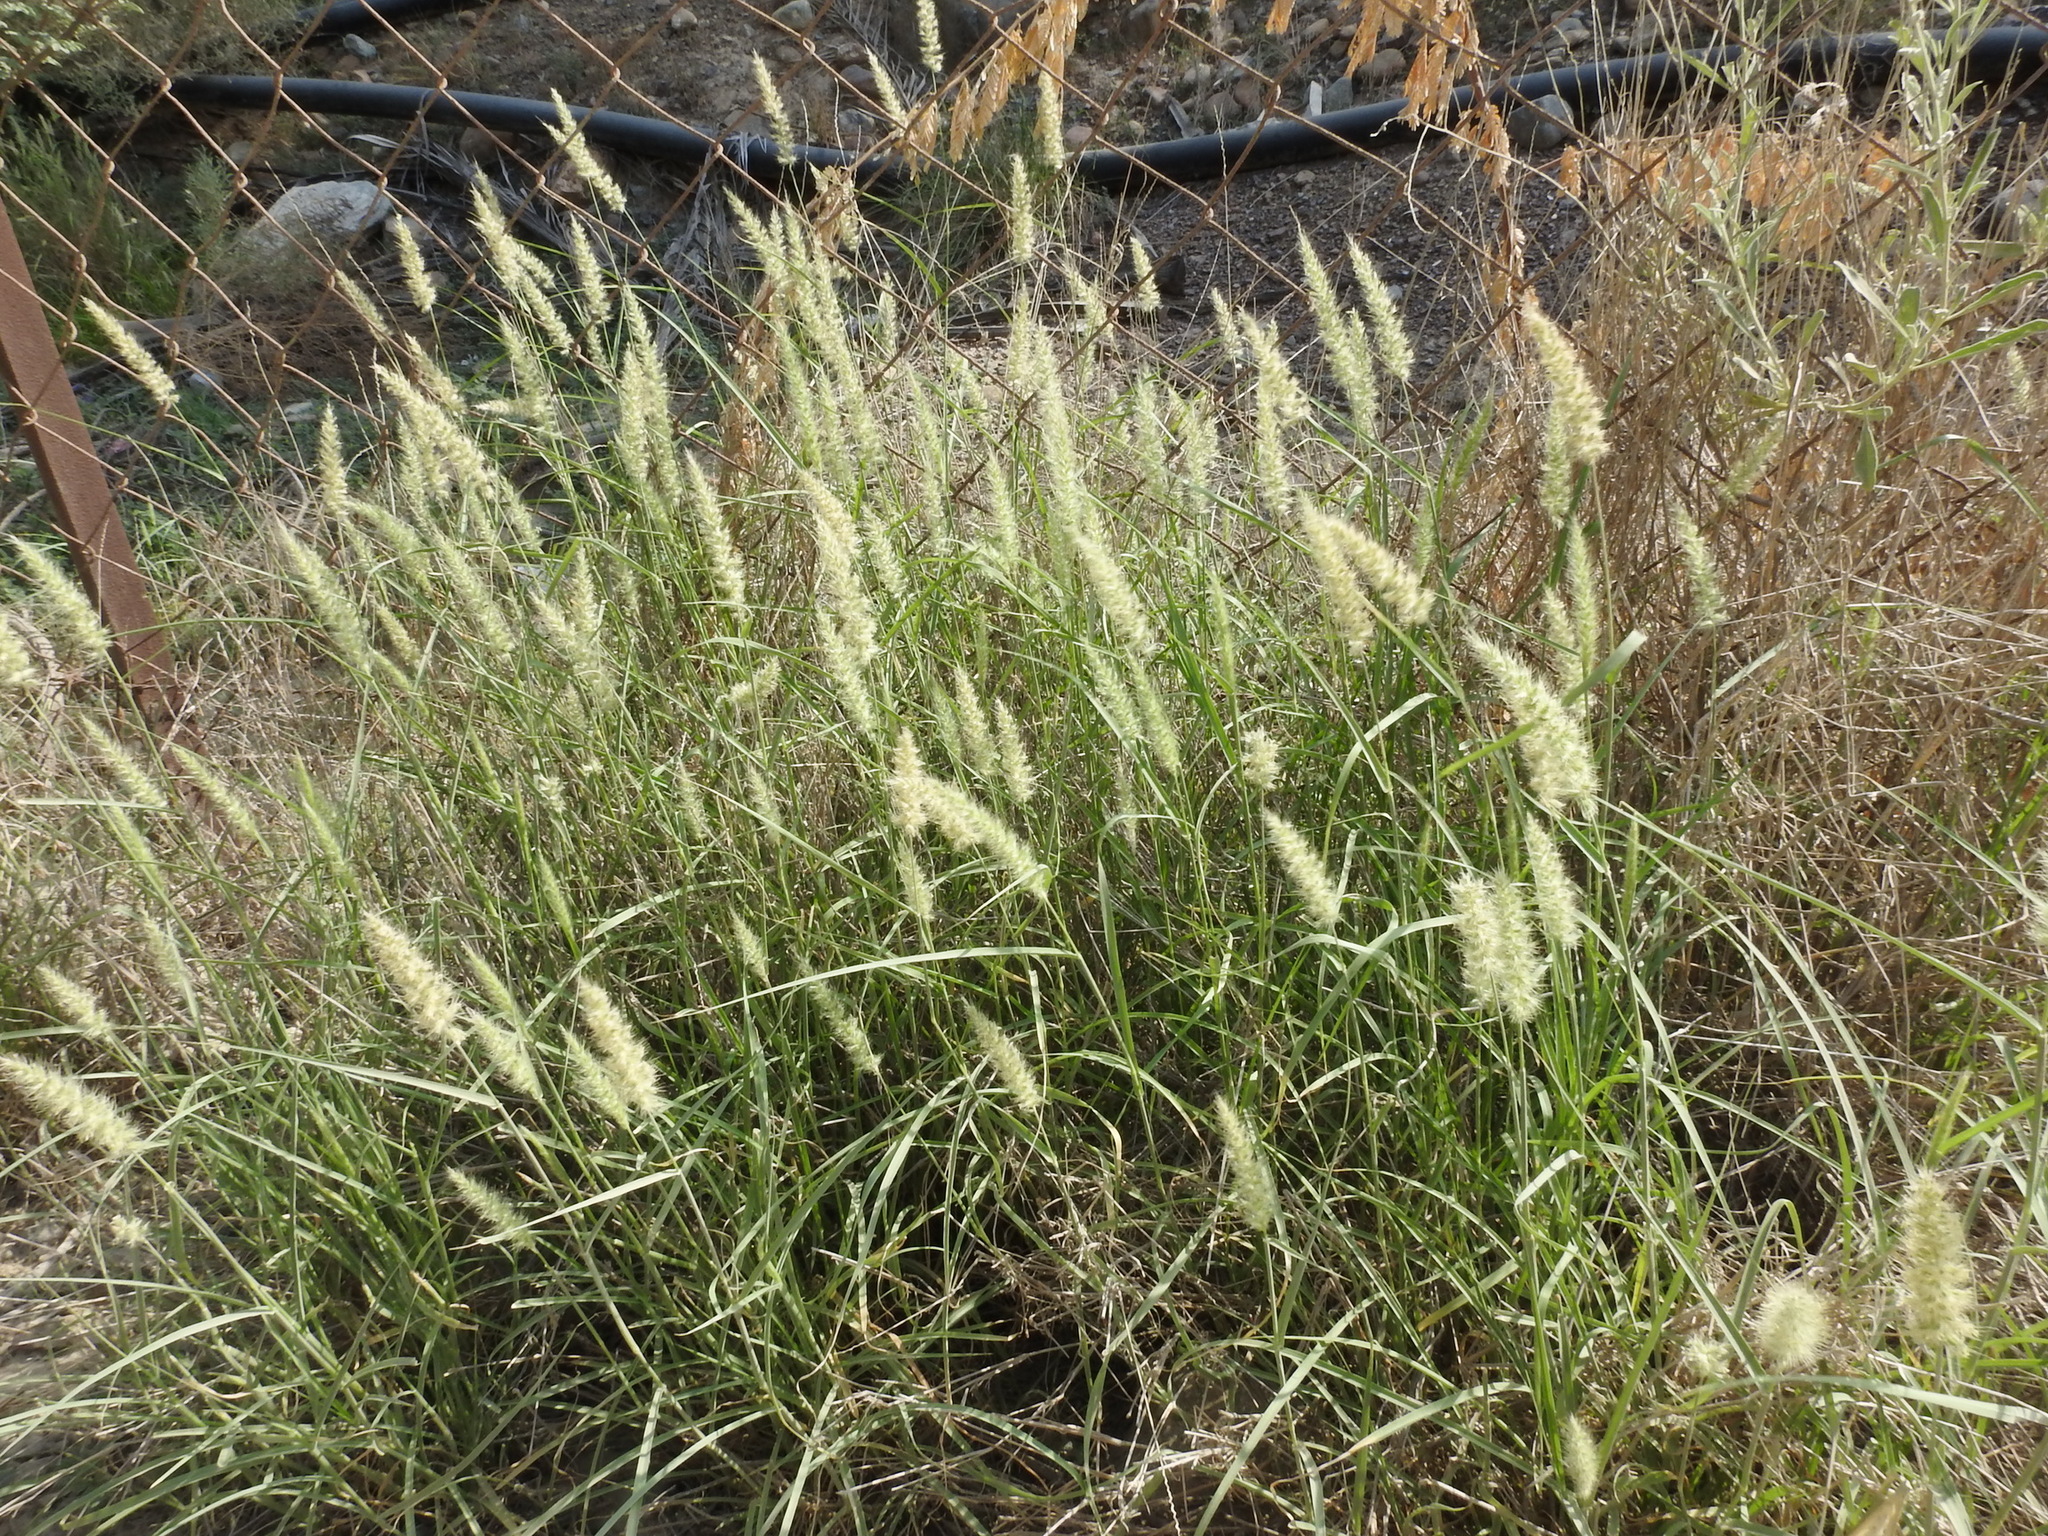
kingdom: Plantae
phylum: Tracheophyta
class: Liliopsida
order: Poales
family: Poaceae
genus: Cenchrus
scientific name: Cenchrus ciliaris
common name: Buffelgrass
